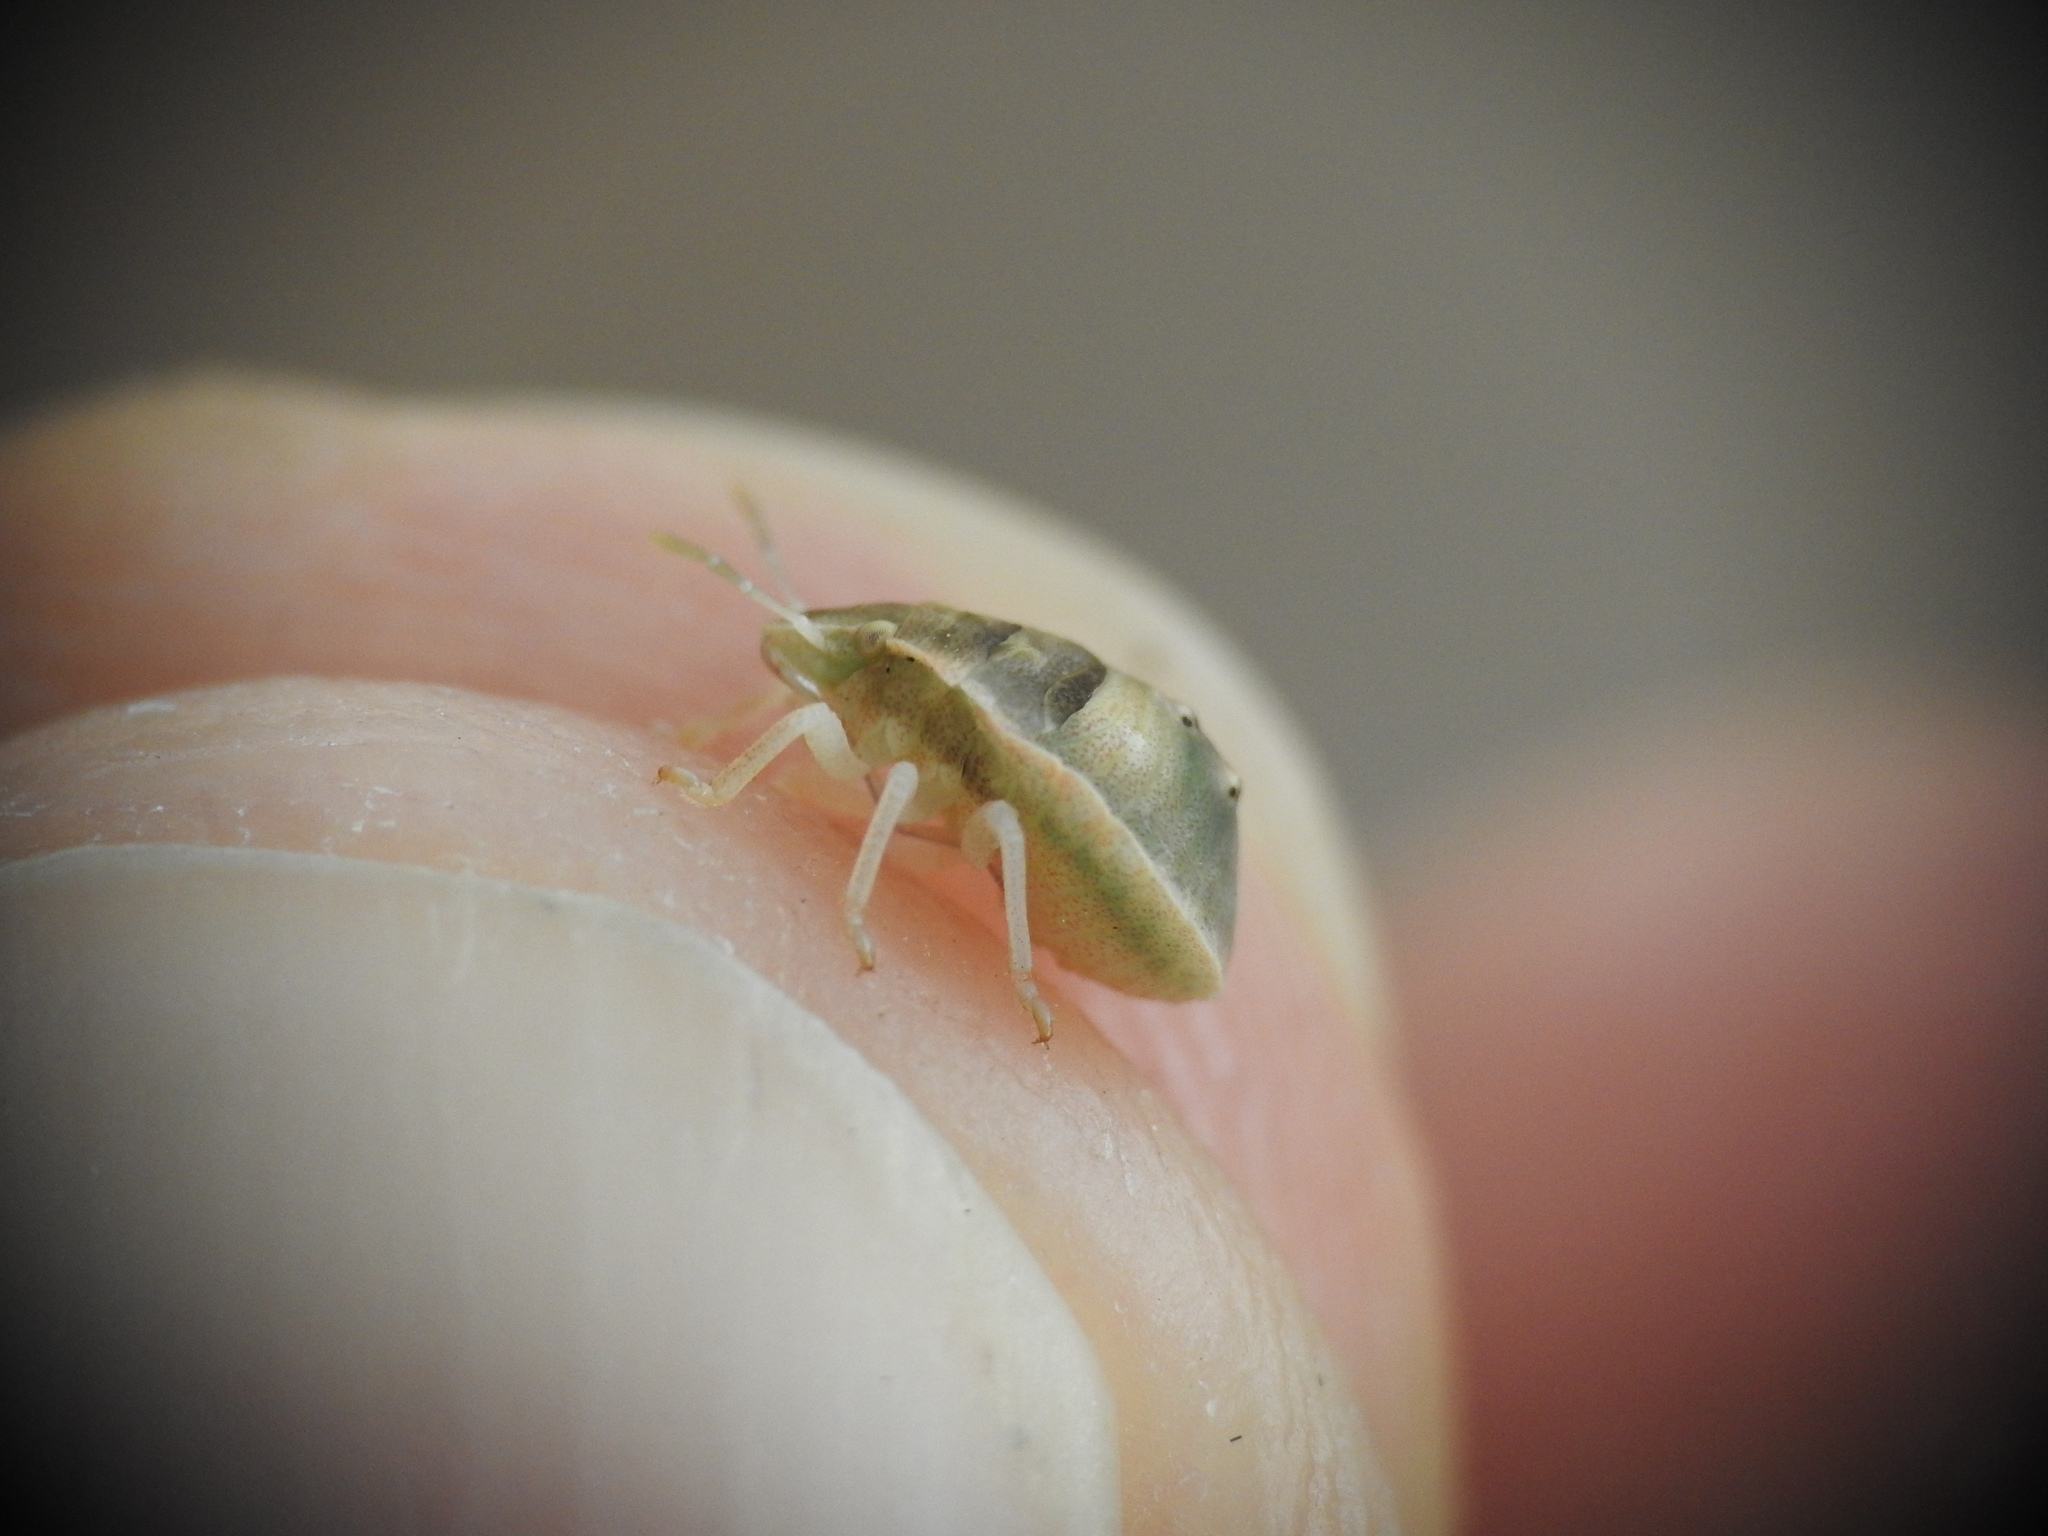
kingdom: Animalia
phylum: Arthropoda
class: Insecta
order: Hemiptera
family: Pentatomidae
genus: Ventocoris
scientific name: Ventocoris rusticus
